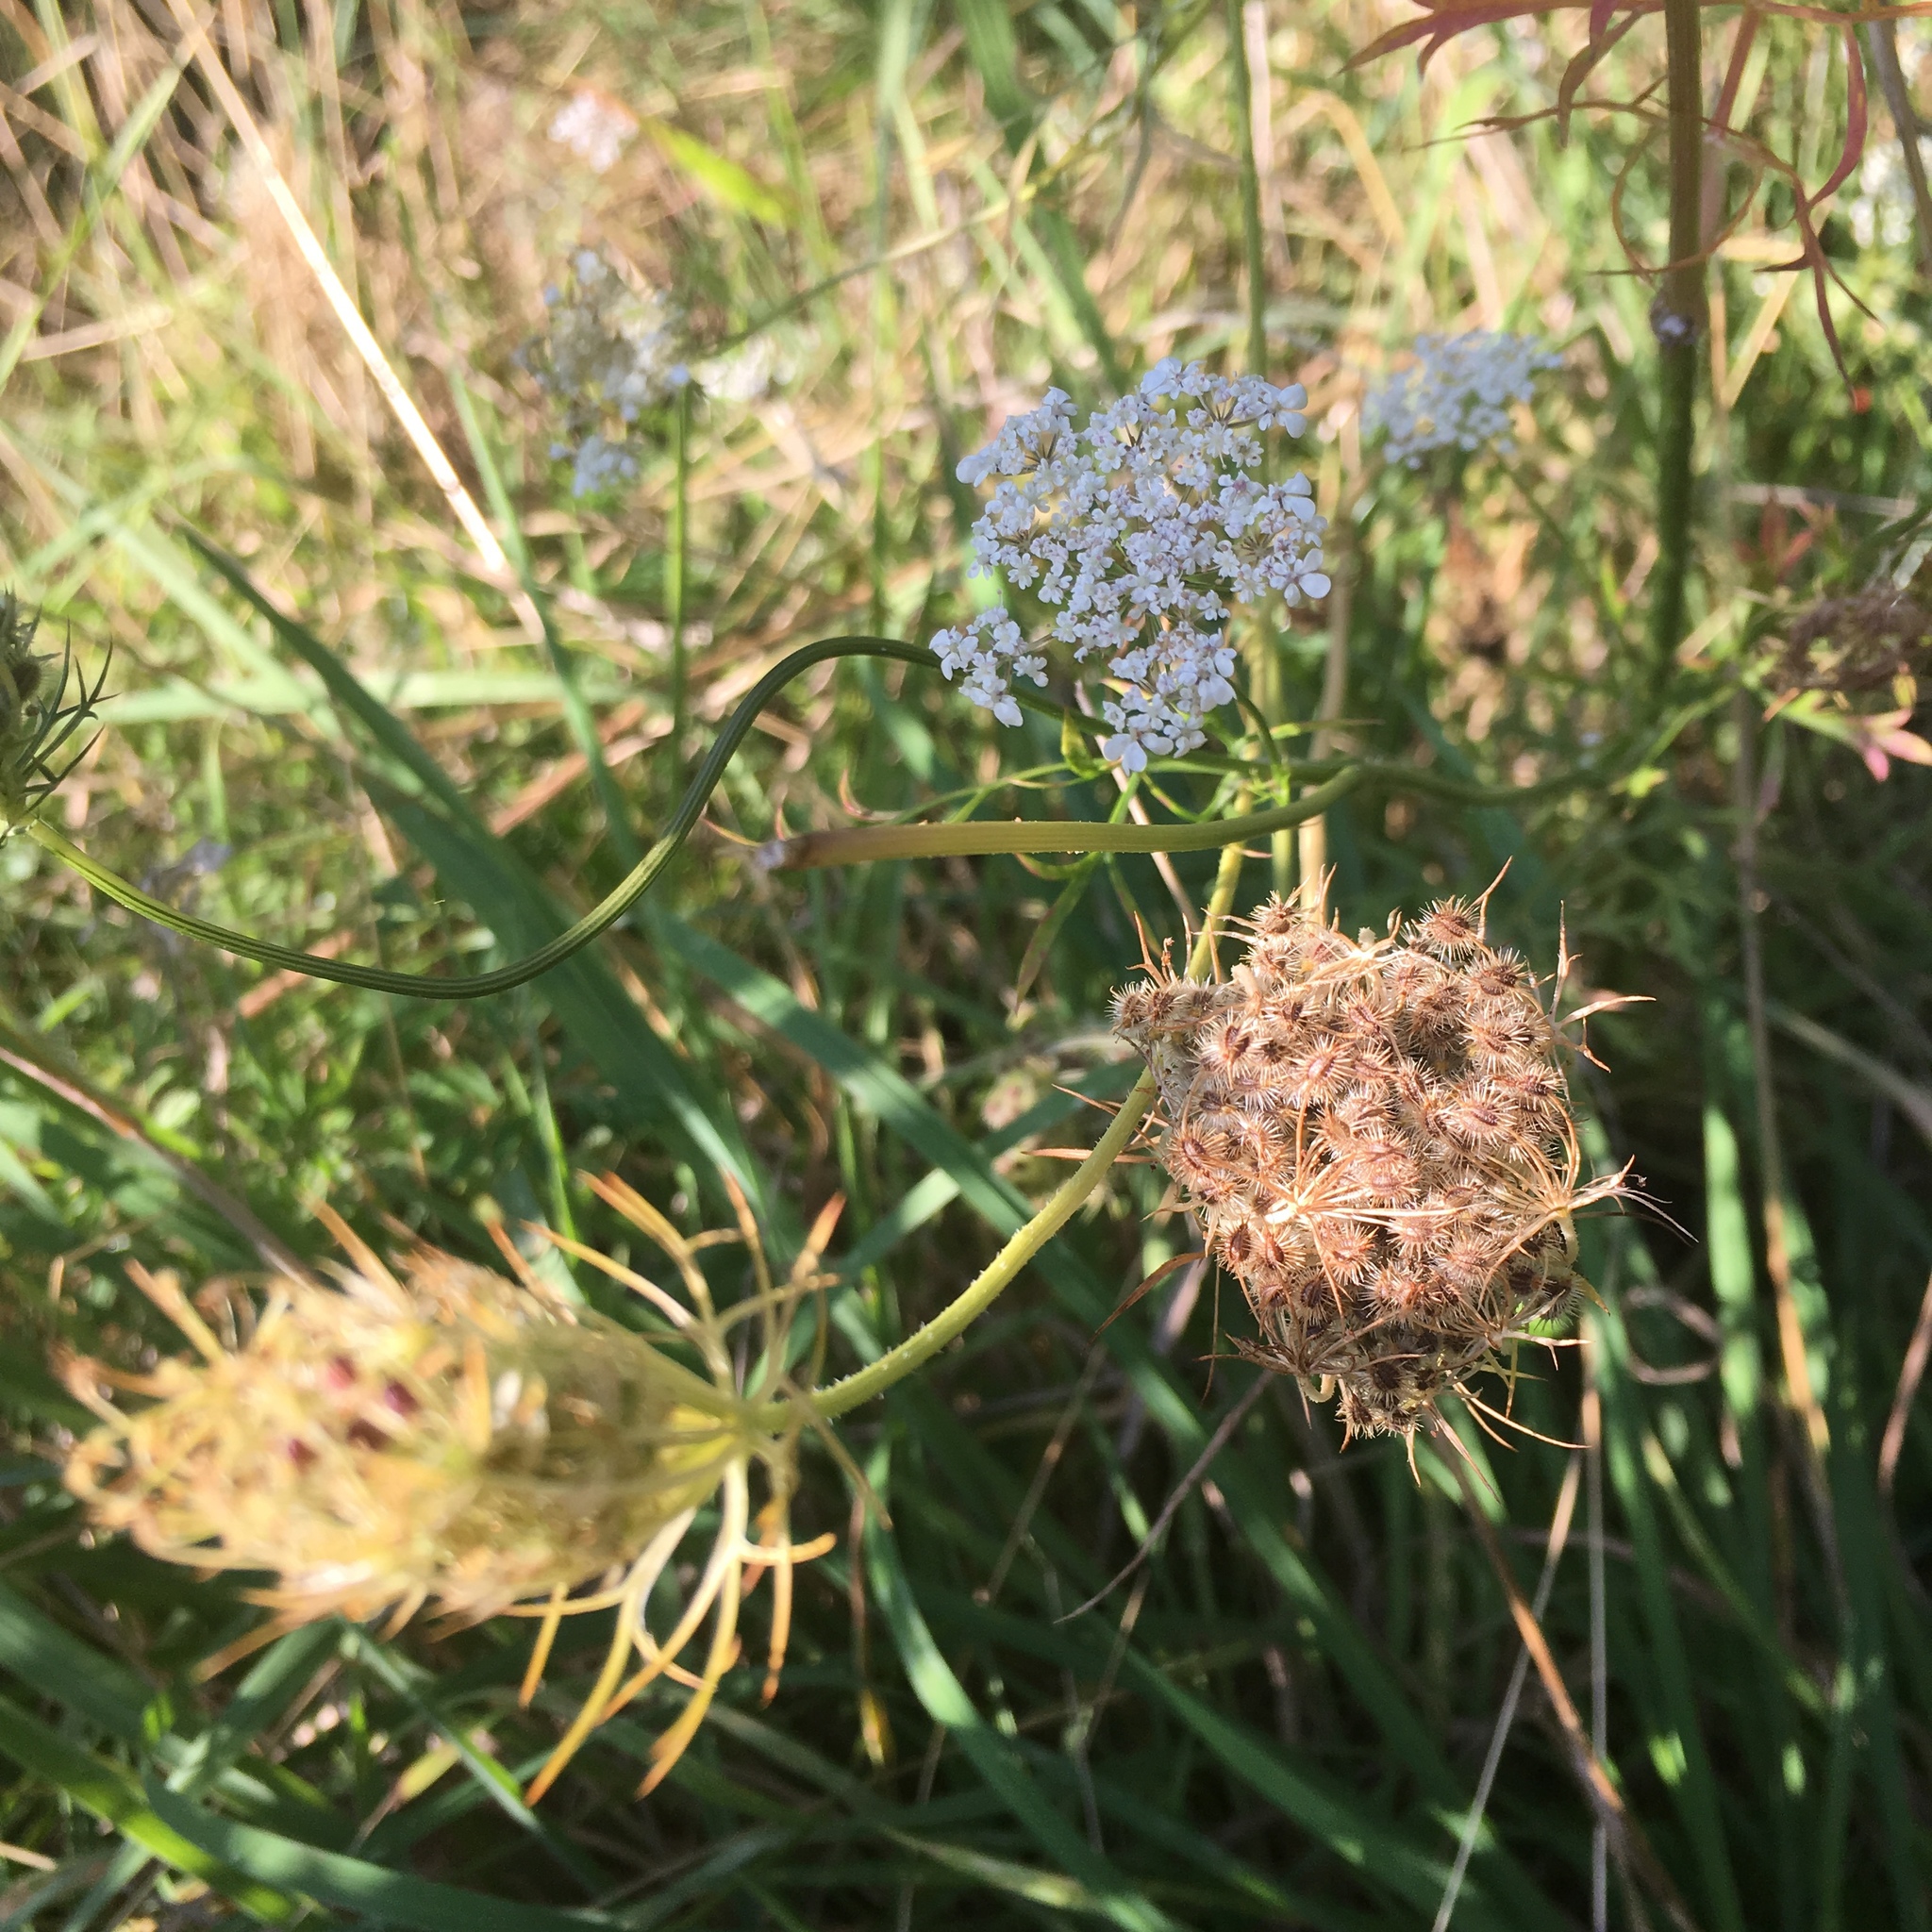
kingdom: Plantae
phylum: Tracheophyta
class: Magnoliopsida
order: Apiales
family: Apiaceae
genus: Daucus
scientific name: Daucus carota
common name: Wild carrot
